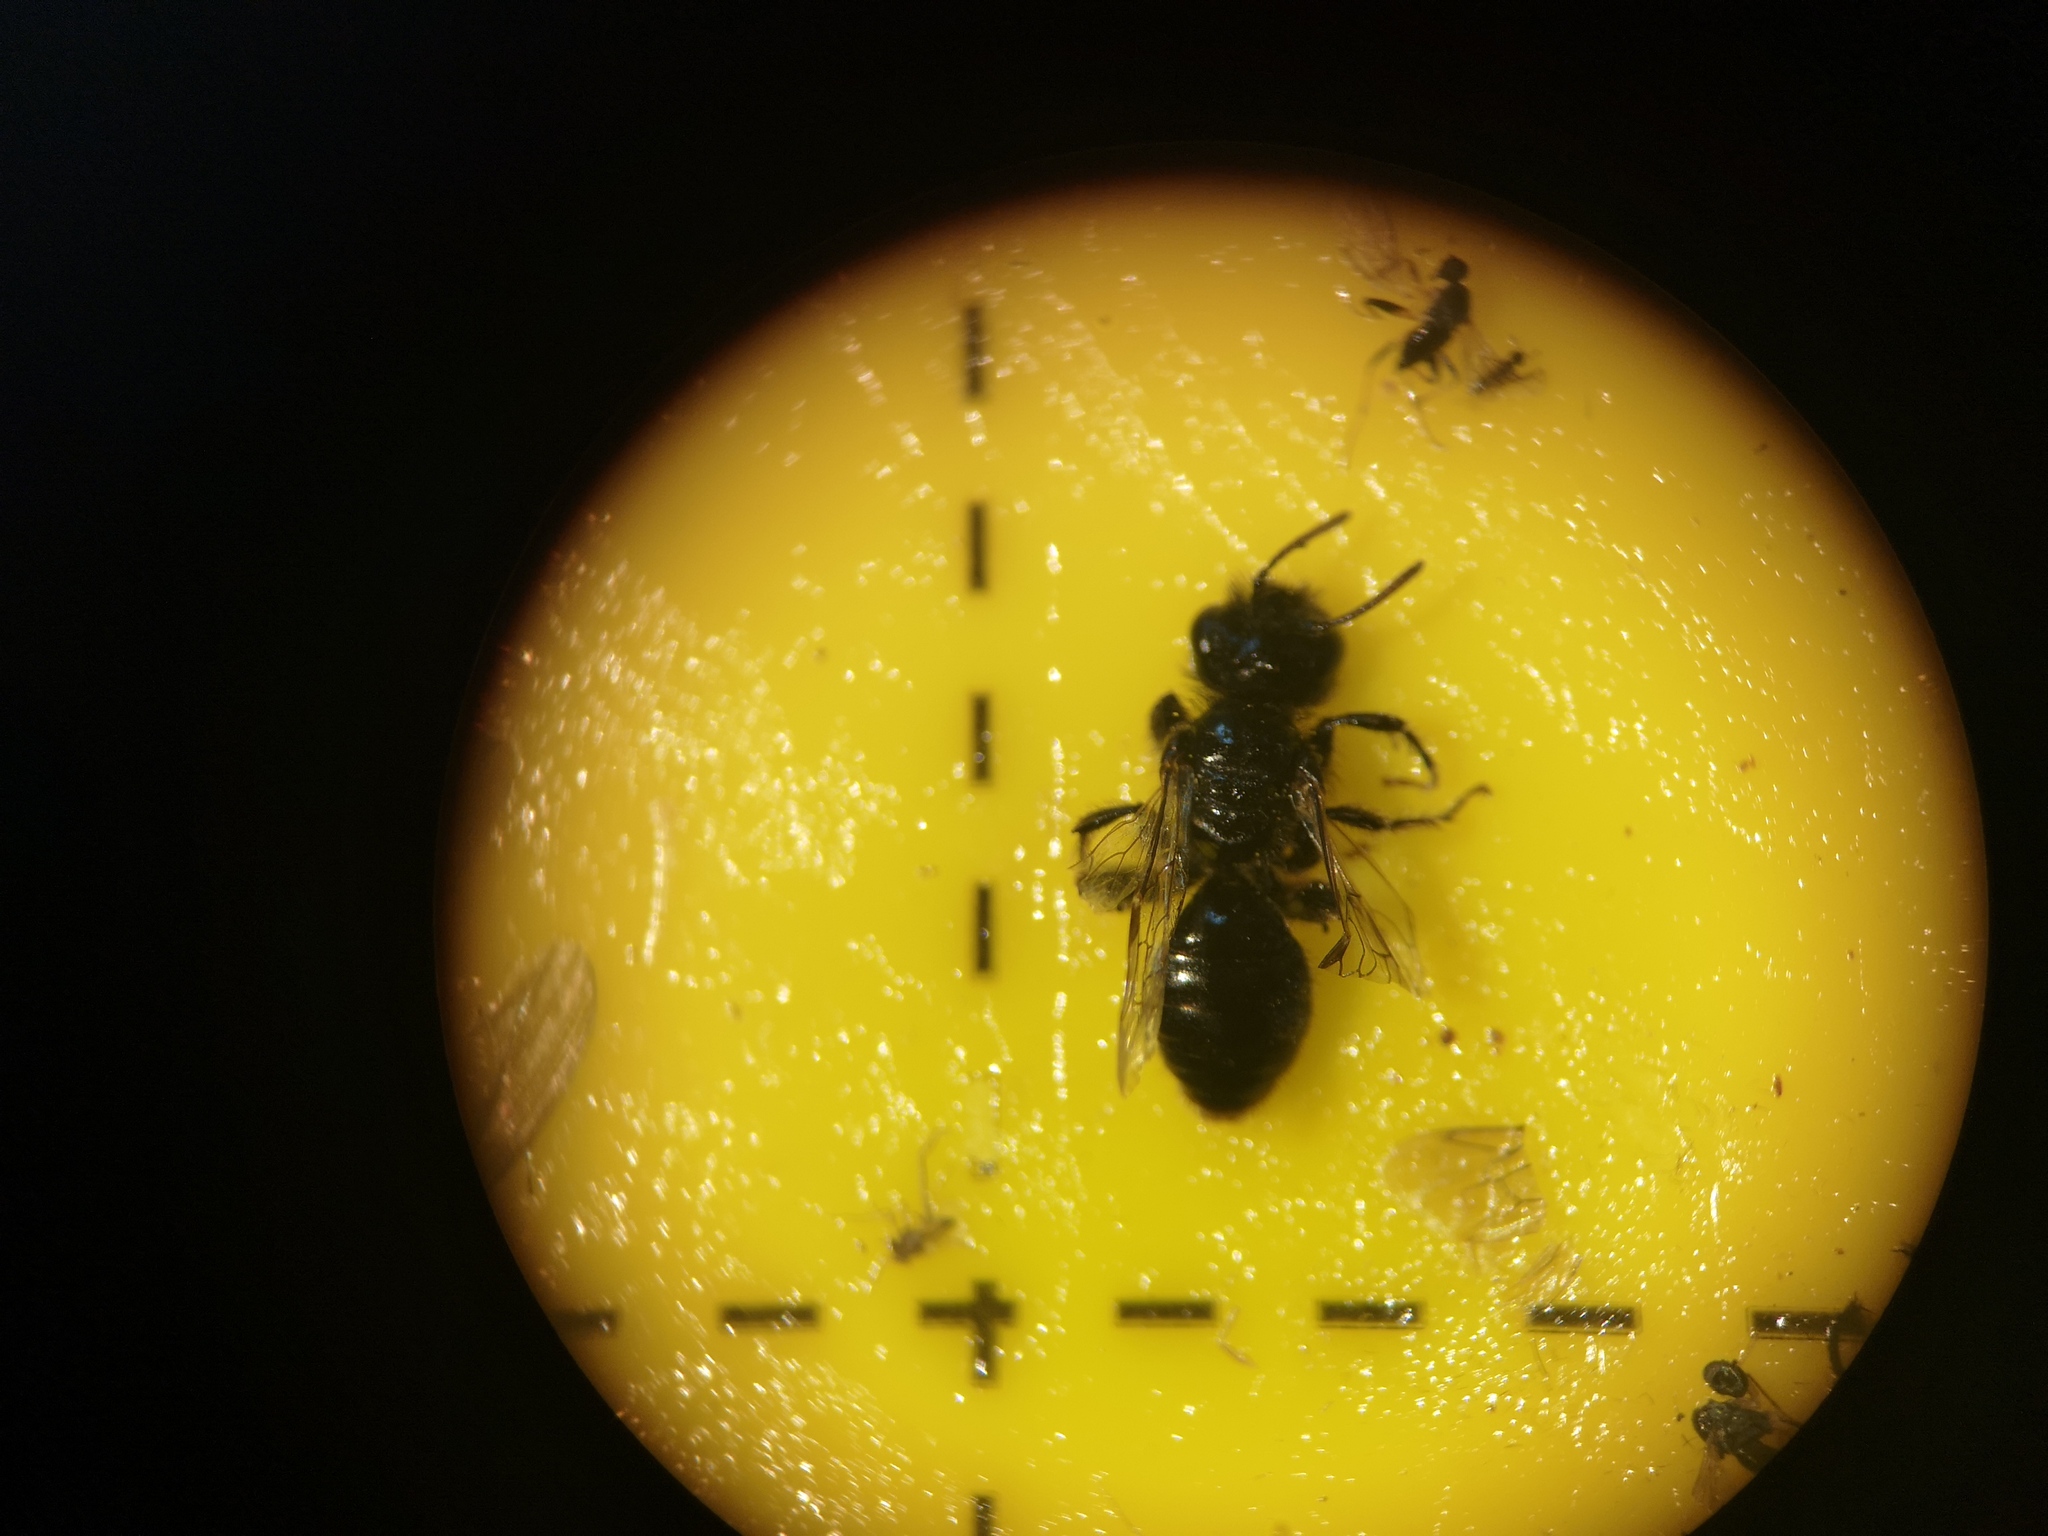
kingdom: Animalia
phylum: Arthropoda
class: Insecta
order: Hymenoptera
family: Andrenidae
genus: Panurgus
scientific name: Panurgus calcaratus
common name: Small shaggy bee
